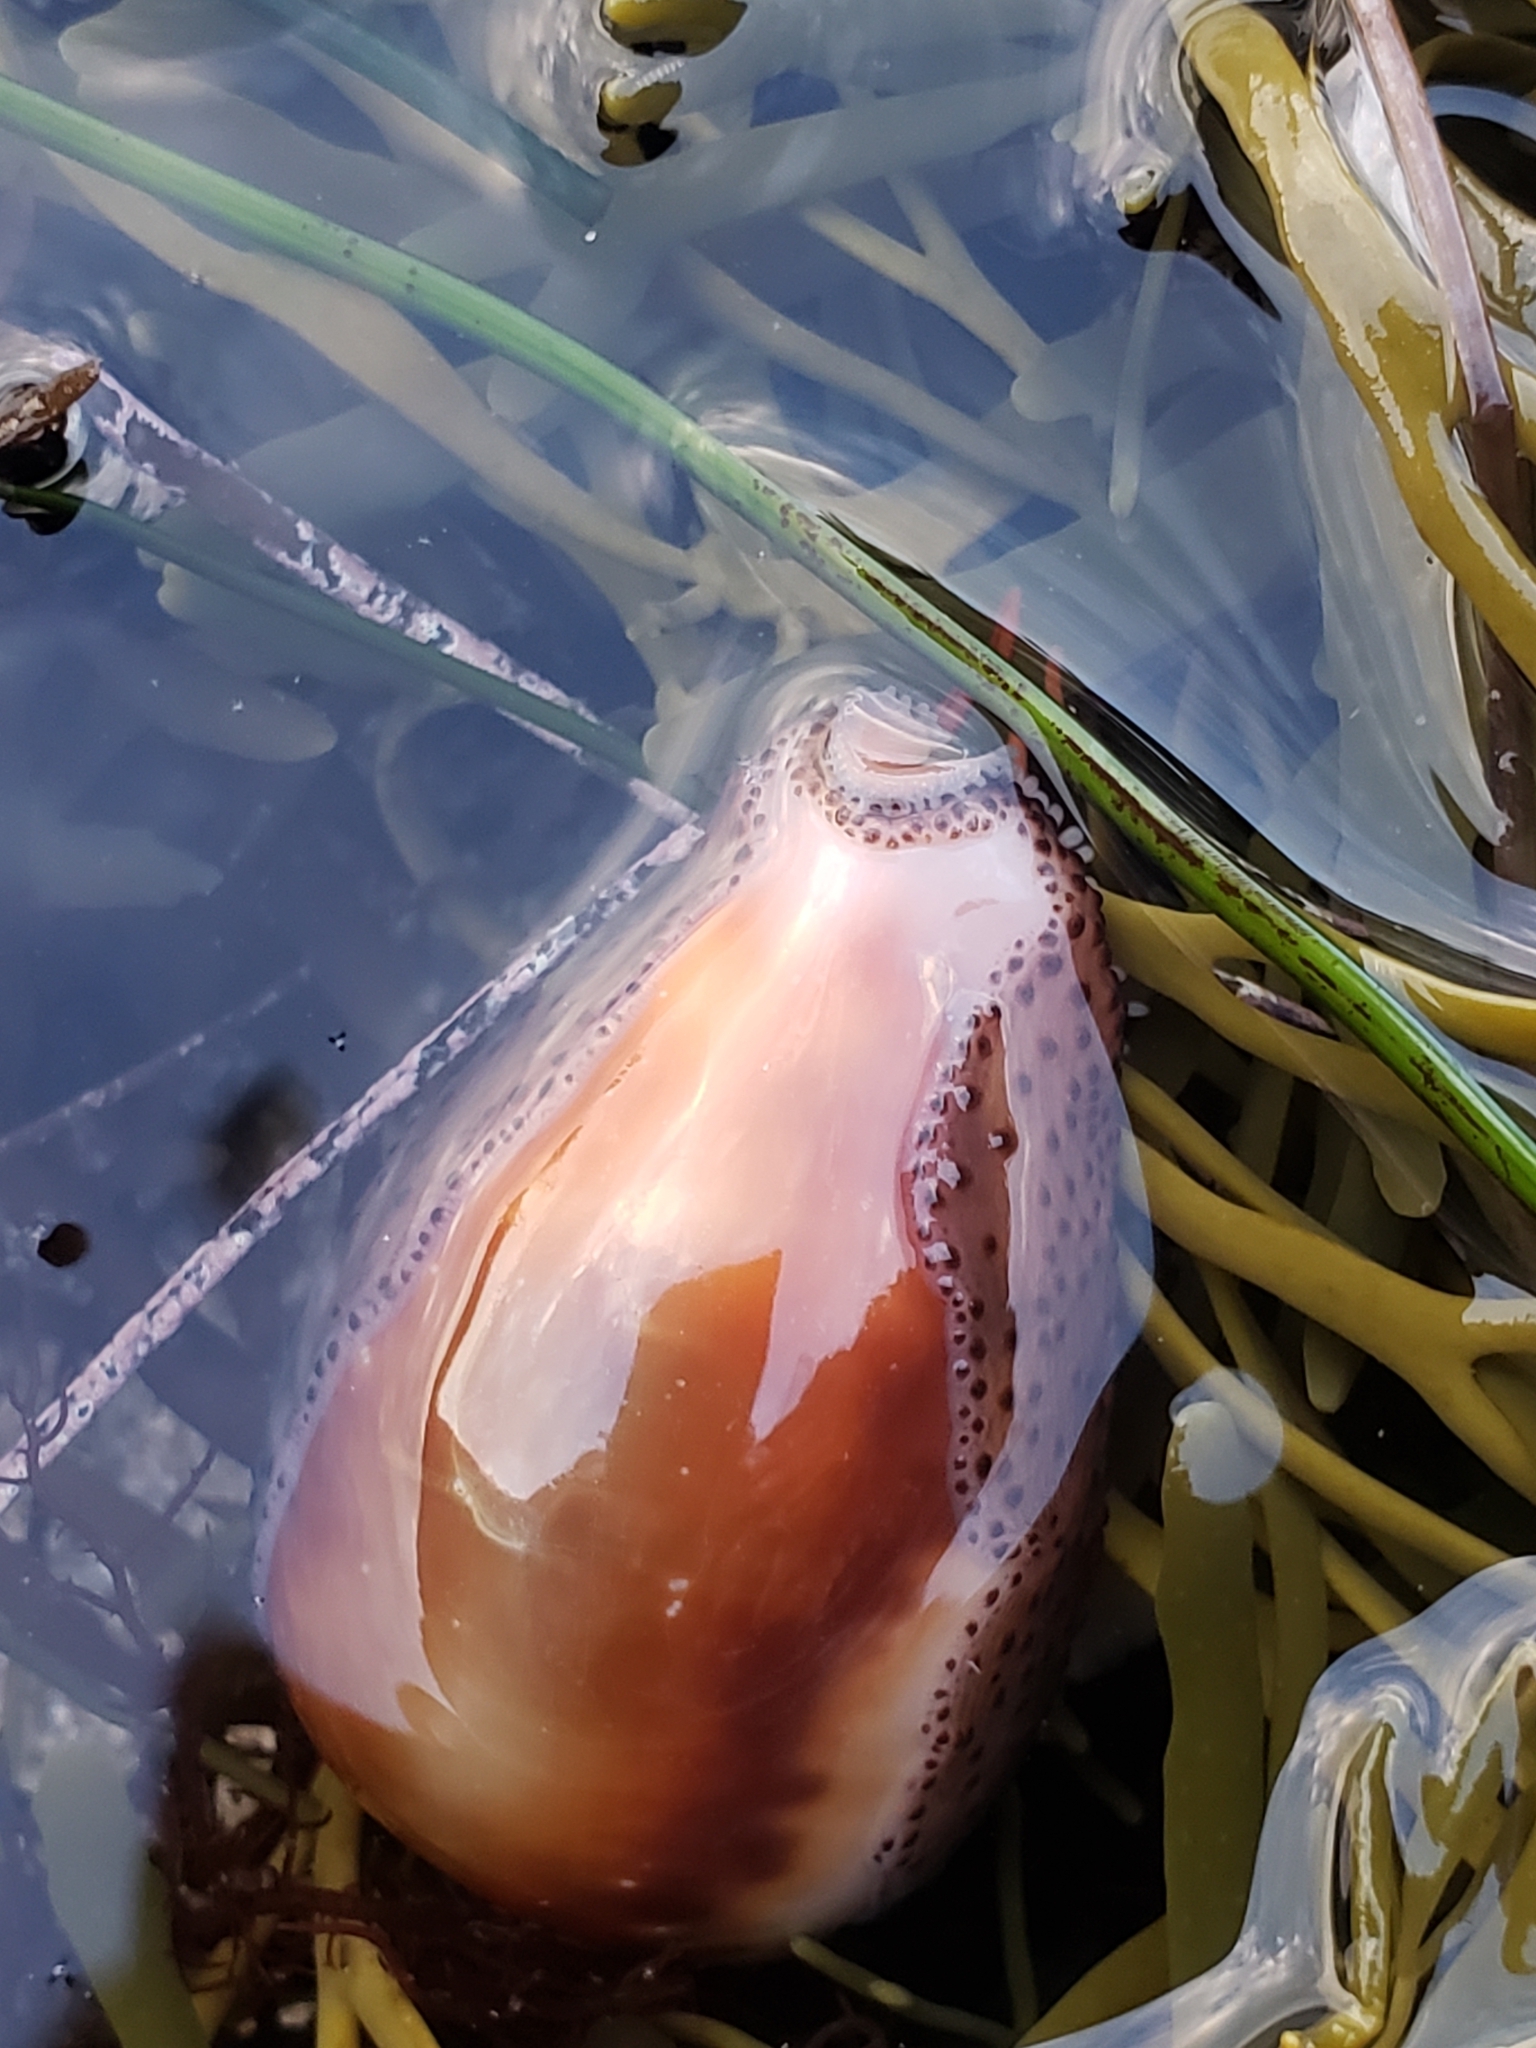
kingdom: Animalia
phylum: Mollusca
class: Gastropoda
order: Littorinimorpha
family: Cypraeidae
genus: Neobernaya
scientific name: Neobernaya spadicea
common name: Chestnut cowrie
